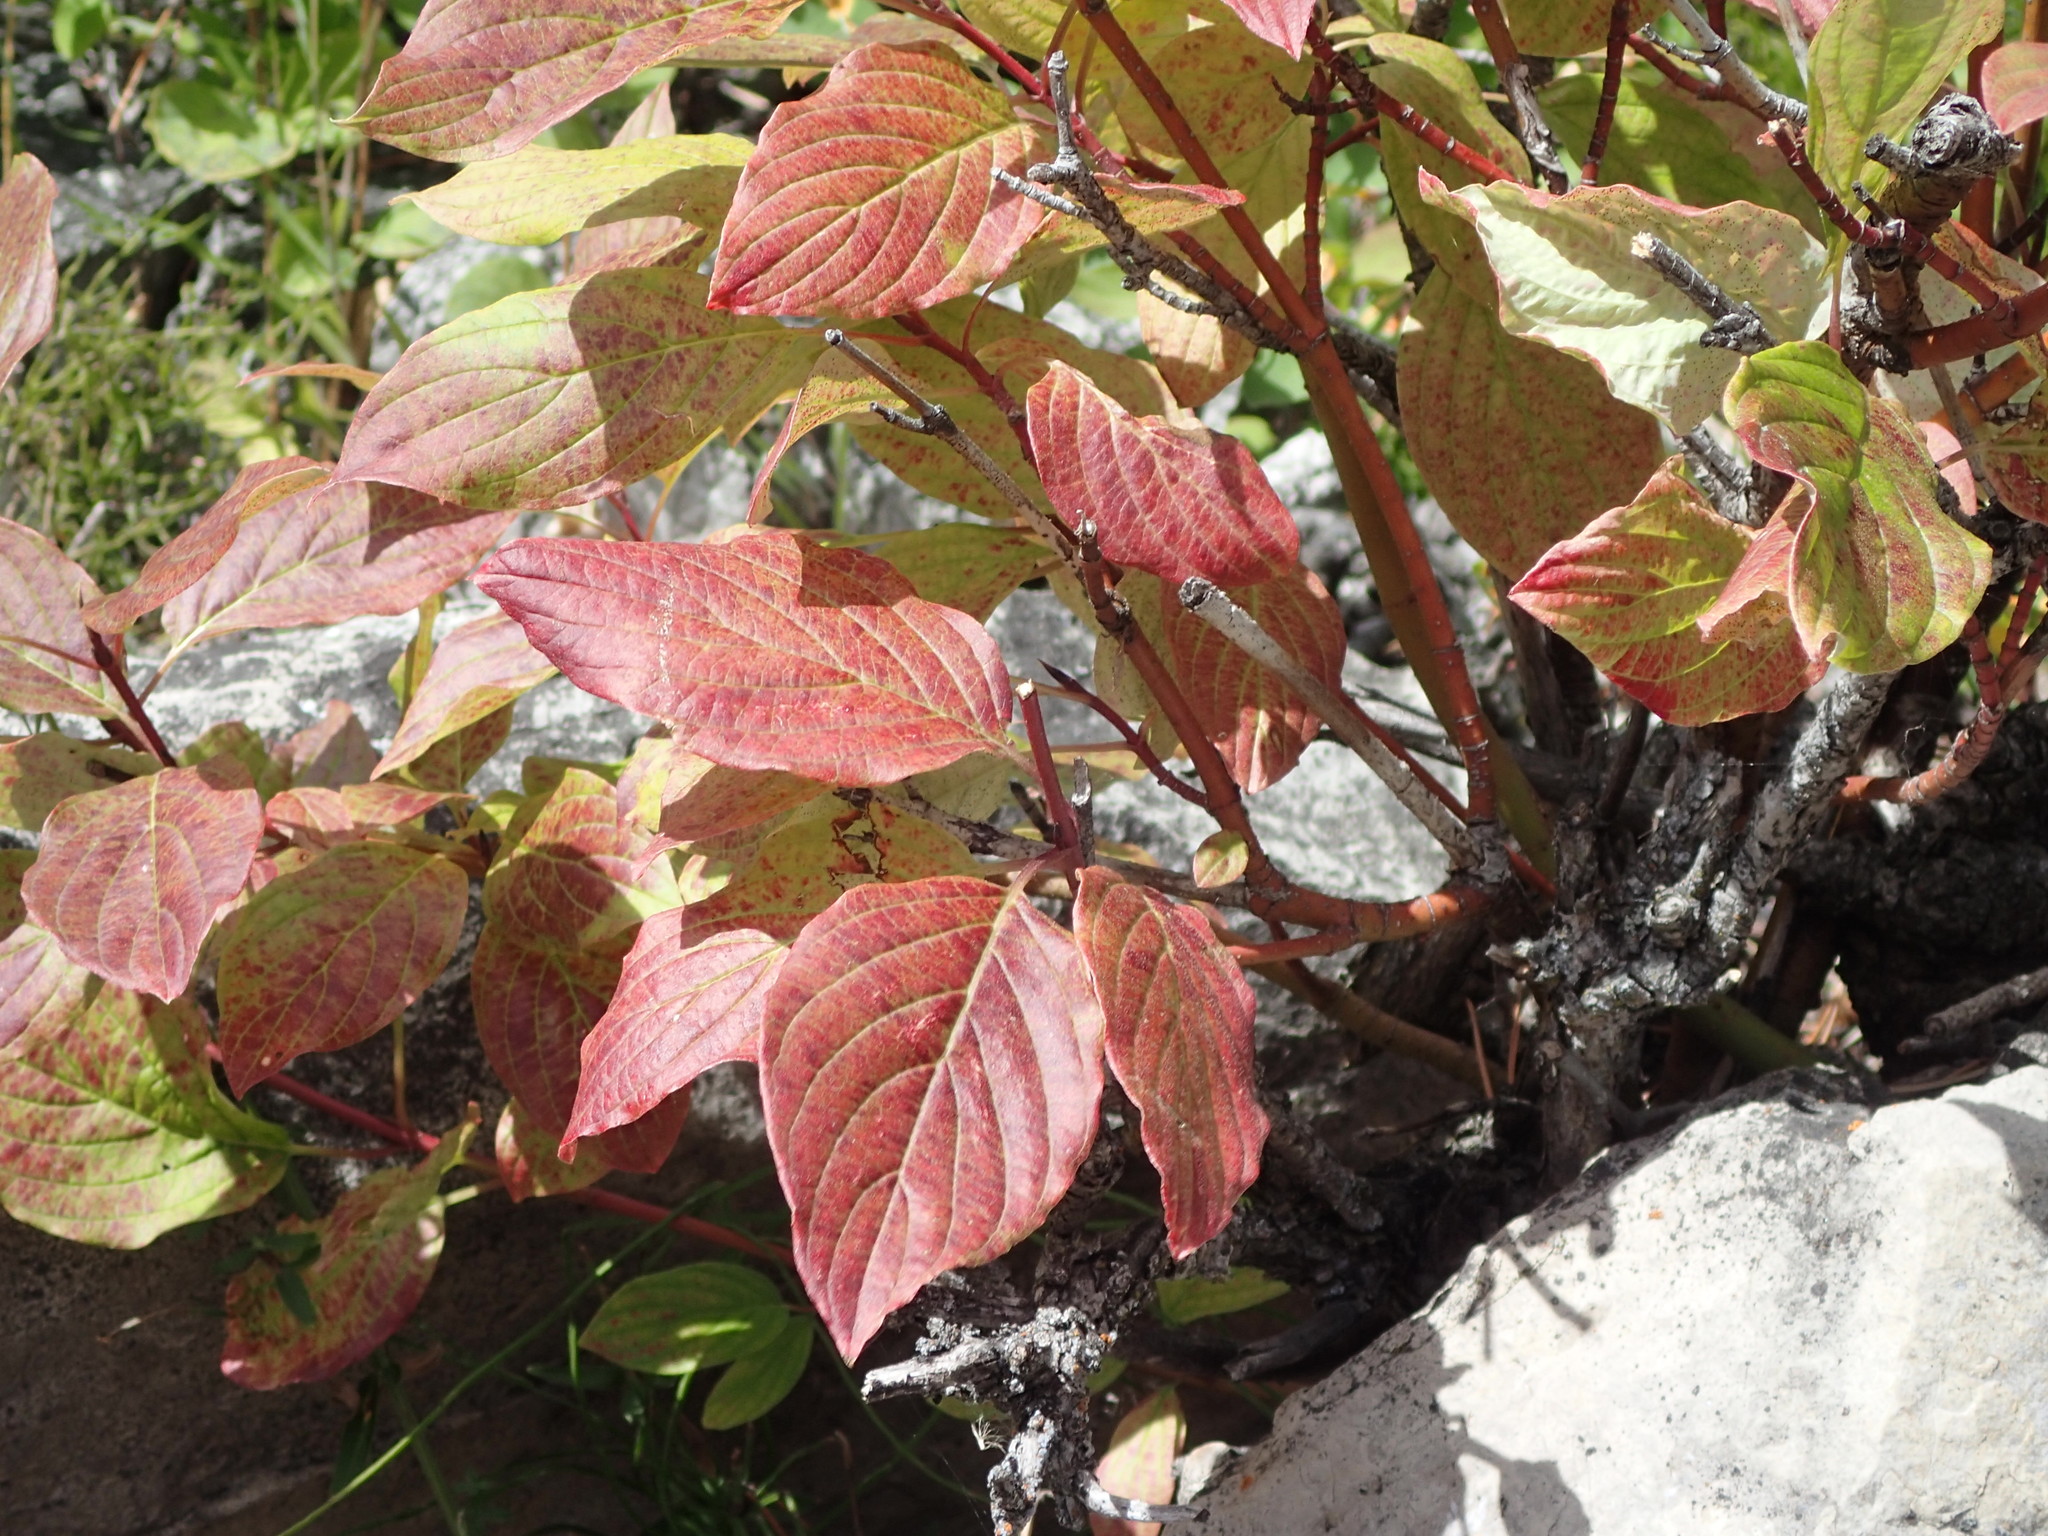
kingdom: Plantae
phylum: Tracheophyta
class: Magnoliopsida
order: Cornales
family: Cornaceae
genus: Cornus
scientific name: Cornus sericea
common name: Red-osier dogwood
